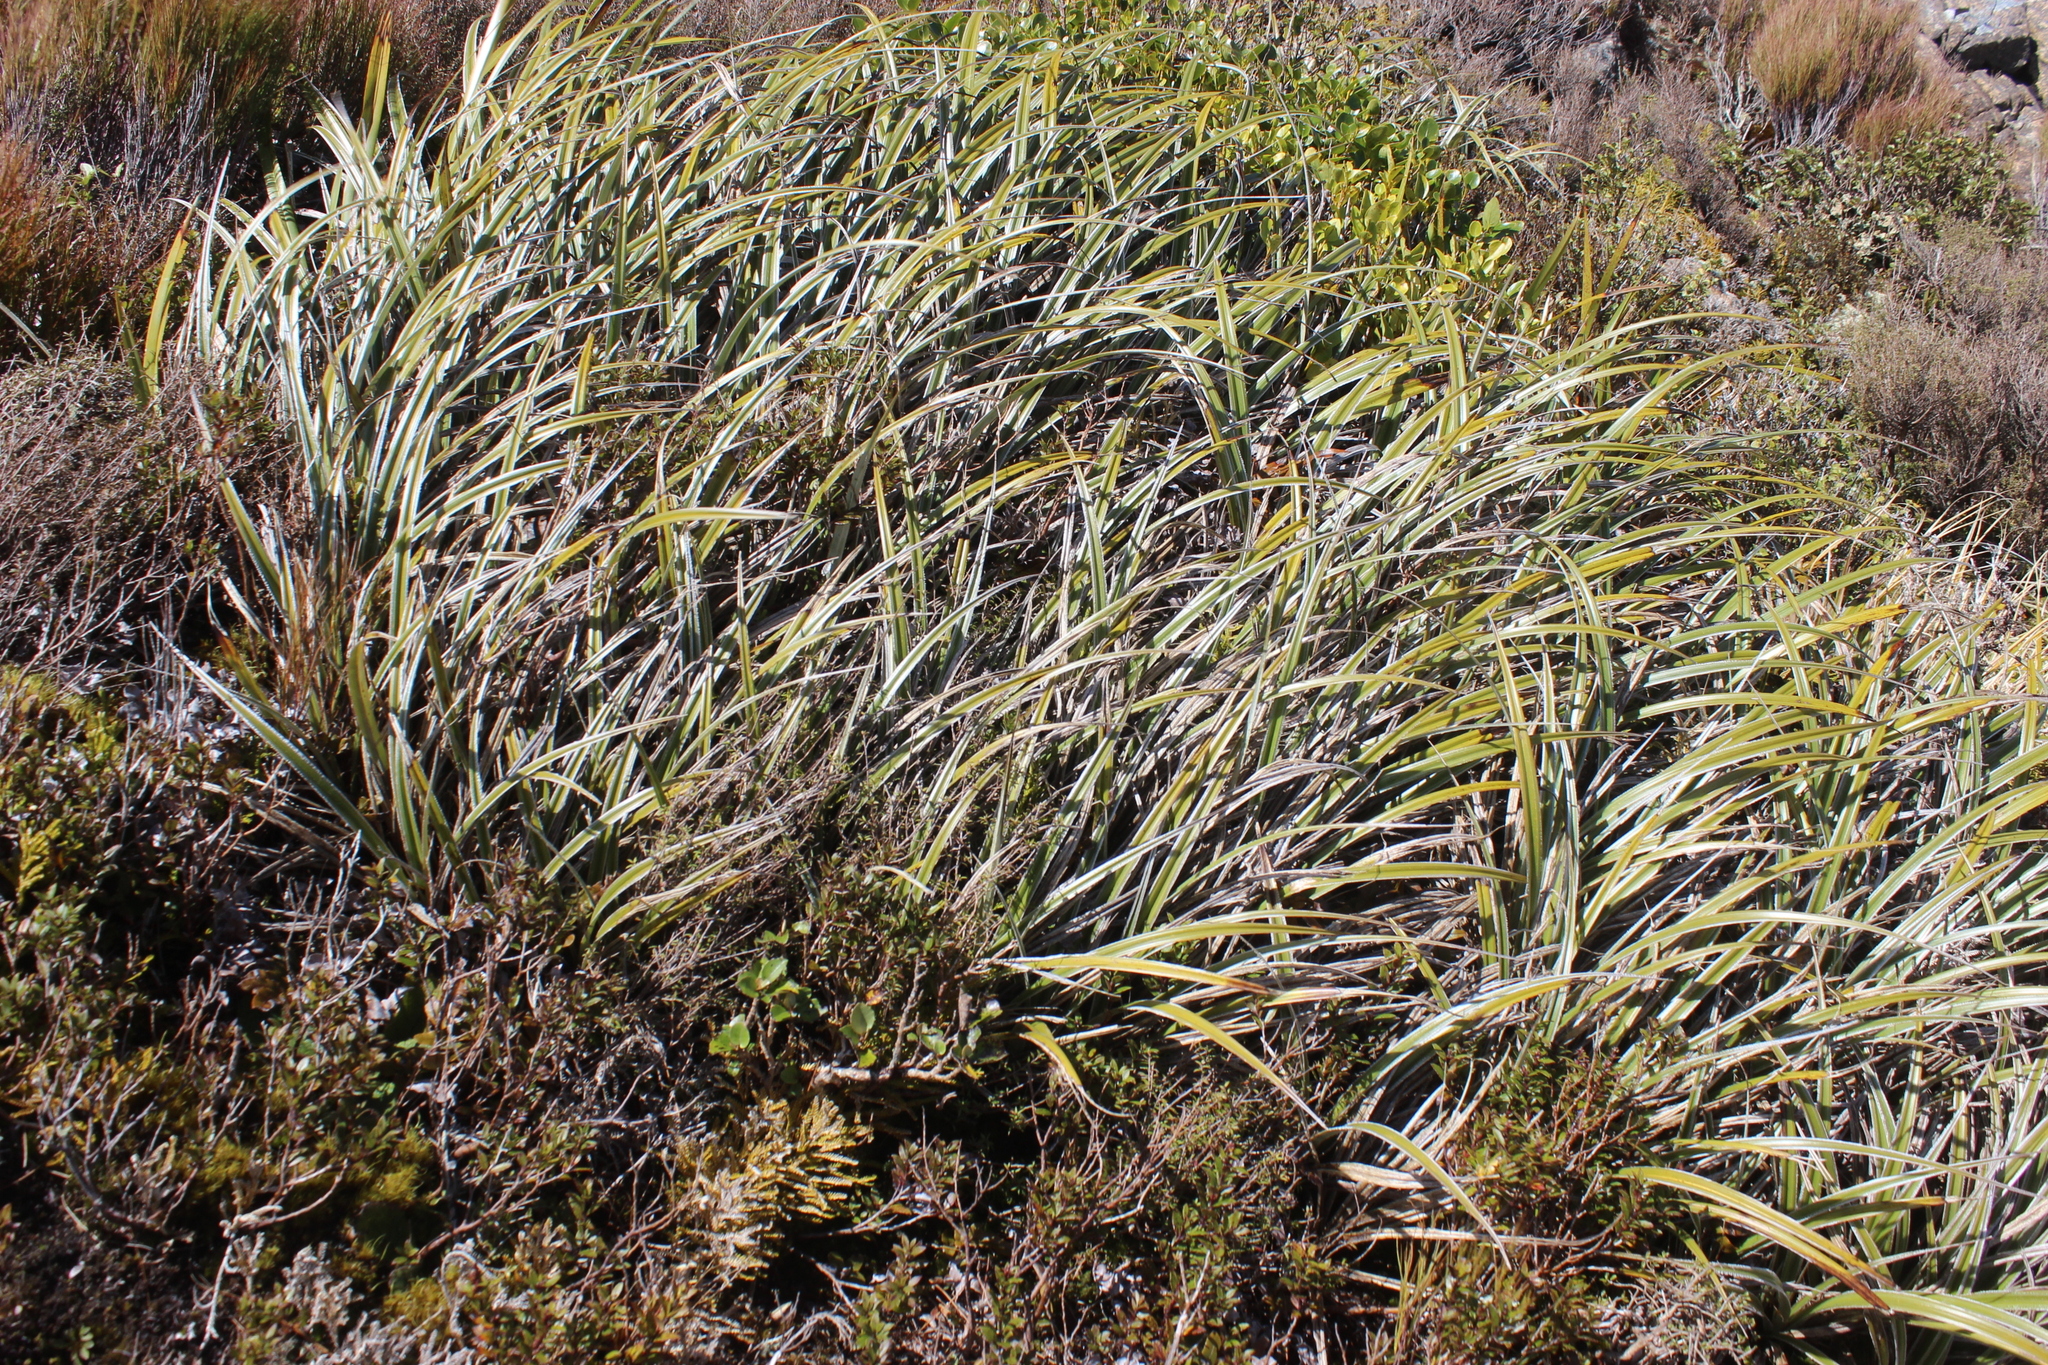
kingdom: Plantae
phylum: Tracheophyta
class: Liliopsida
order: Asparagales
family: Asteliaceae
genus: Astelia
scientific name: Astelia nervosa
